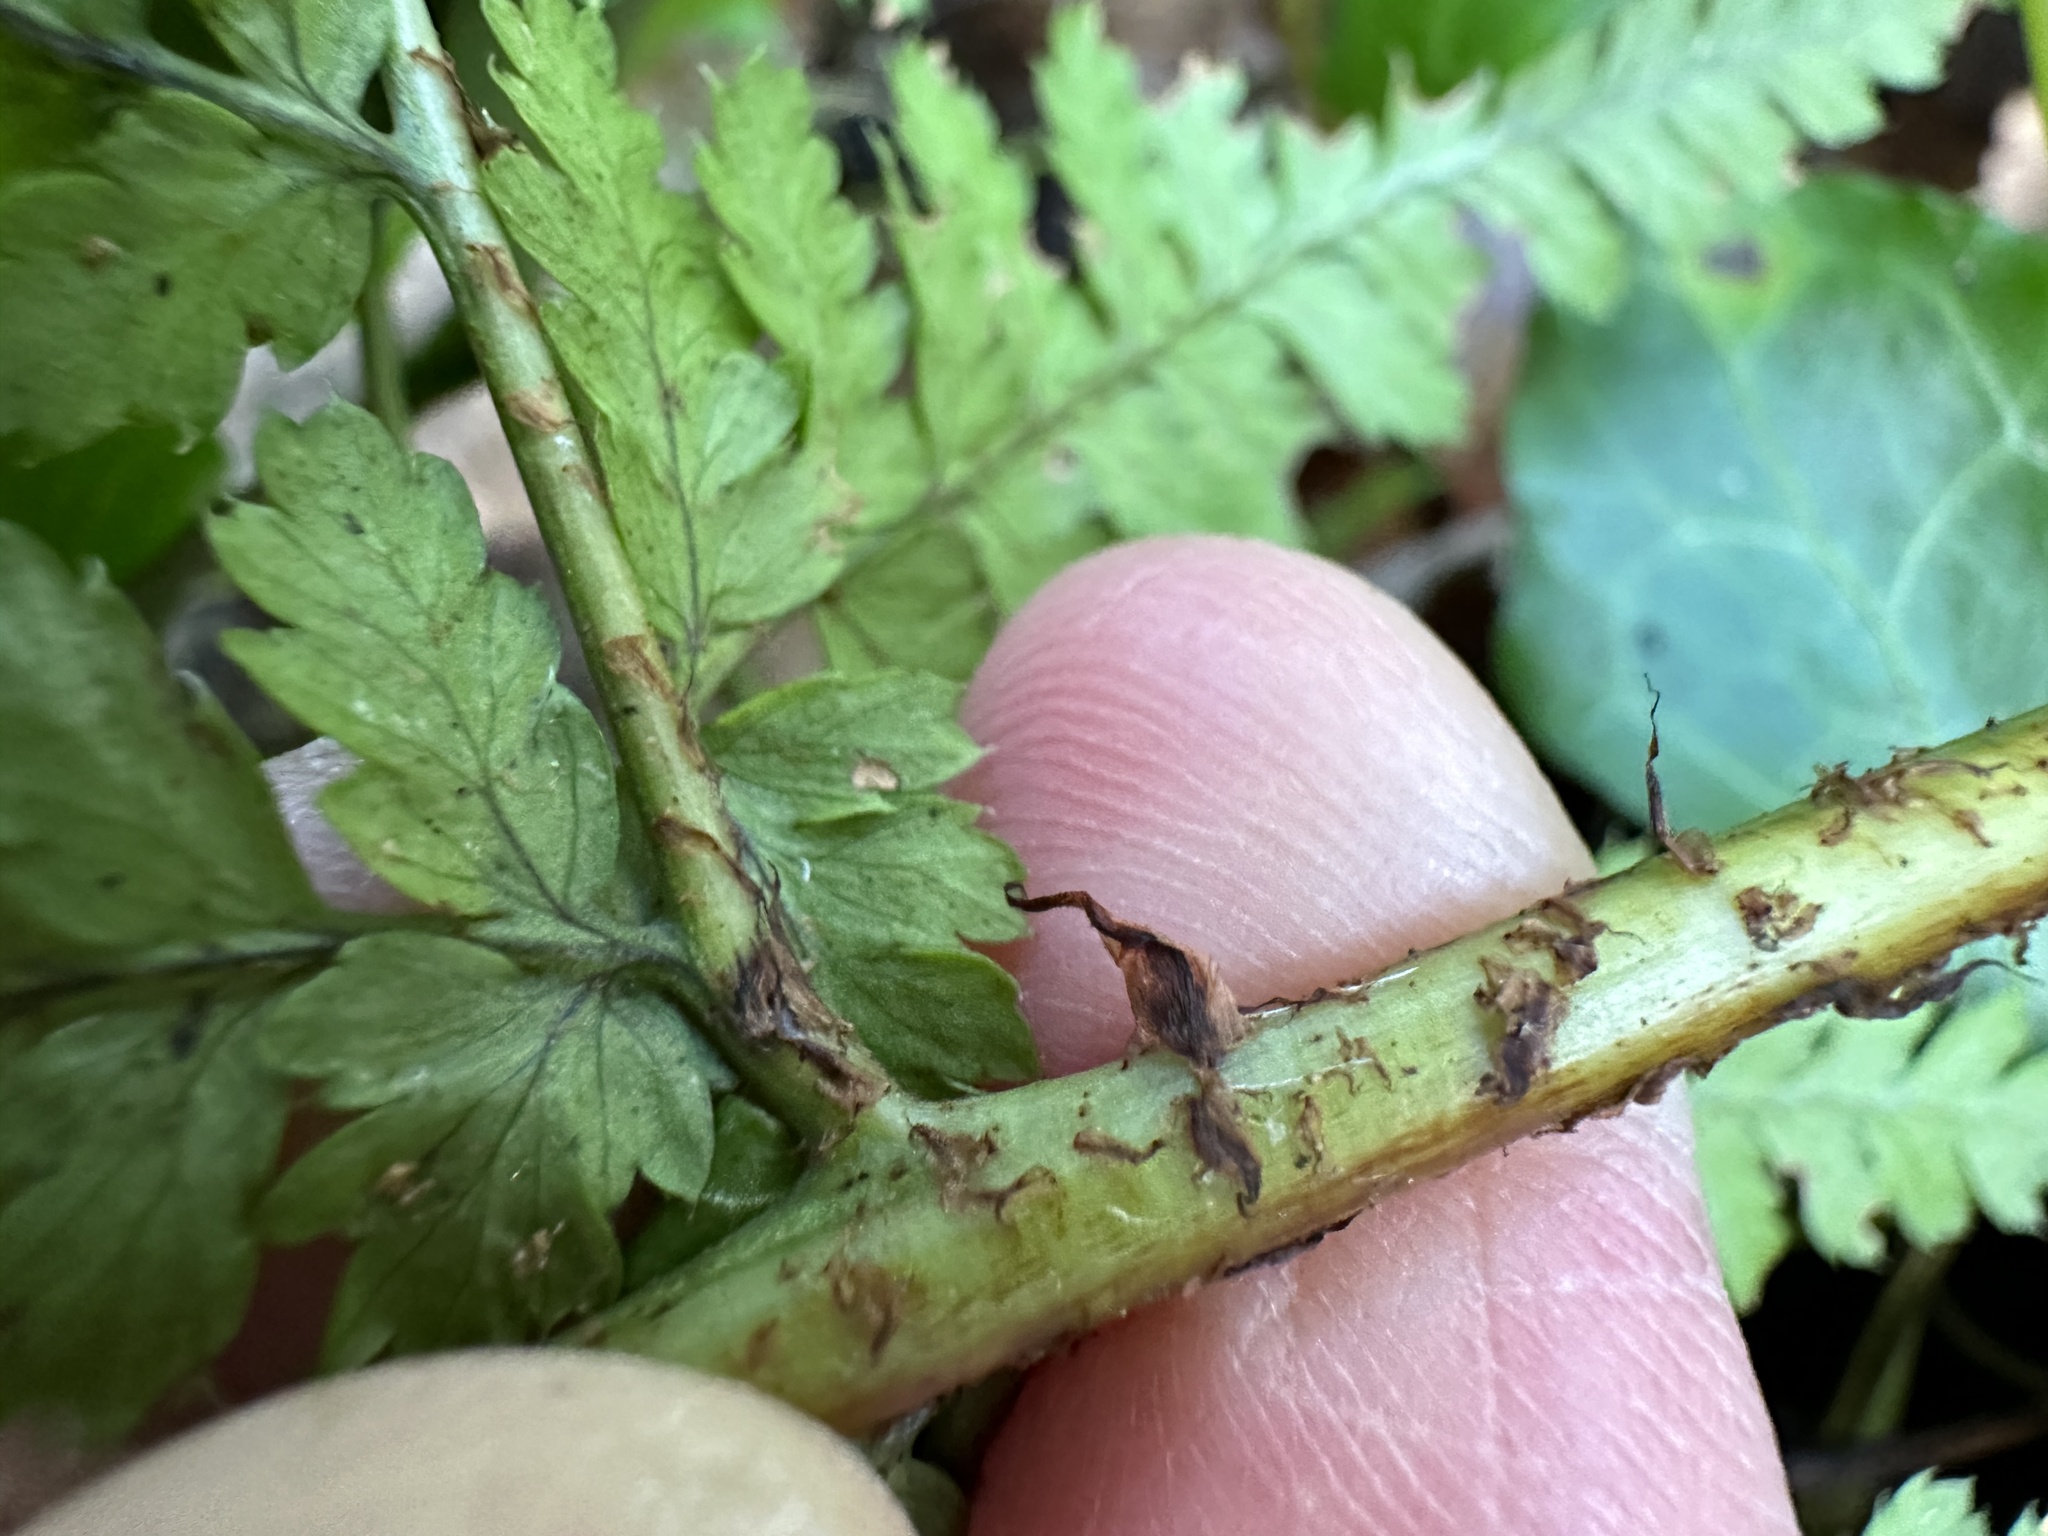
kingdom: Plantae
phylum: Tracheophyta
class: Polypodiopsida
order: Polypodiales
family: Dryopteridaceae
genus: Dryopteris
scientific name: Dryopteris dilatata
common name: Broad buckler-fern
